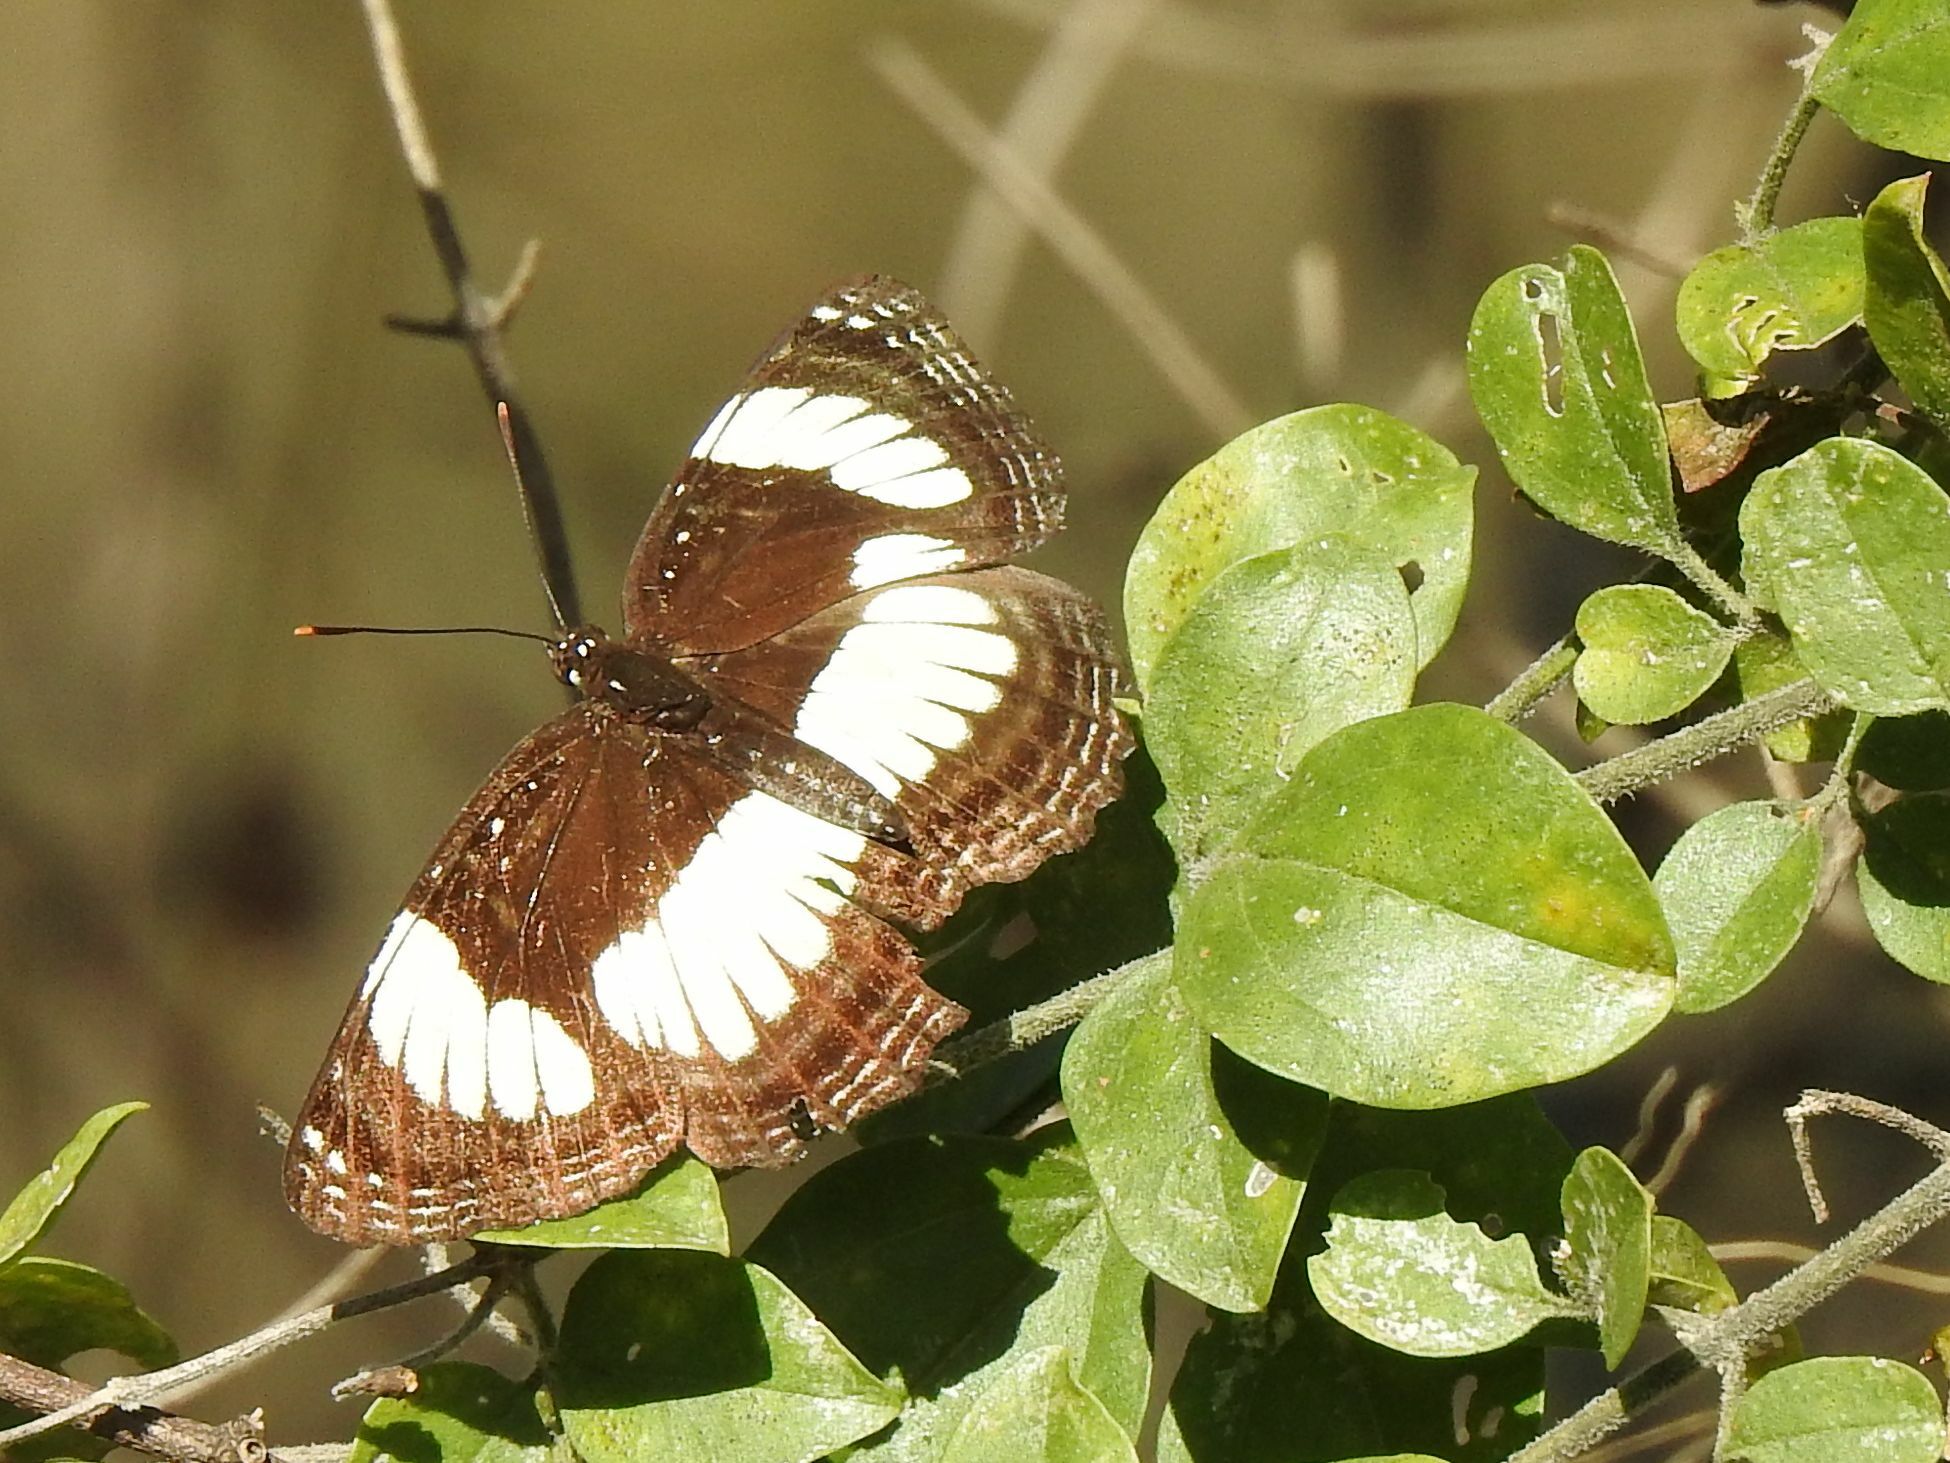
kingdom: Animalia
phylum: Arthropoda
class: Insecta
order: Lepidoptera
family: Nymphalidae
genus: Neptis
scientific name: Neptis laeta
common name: Common barred sailor
